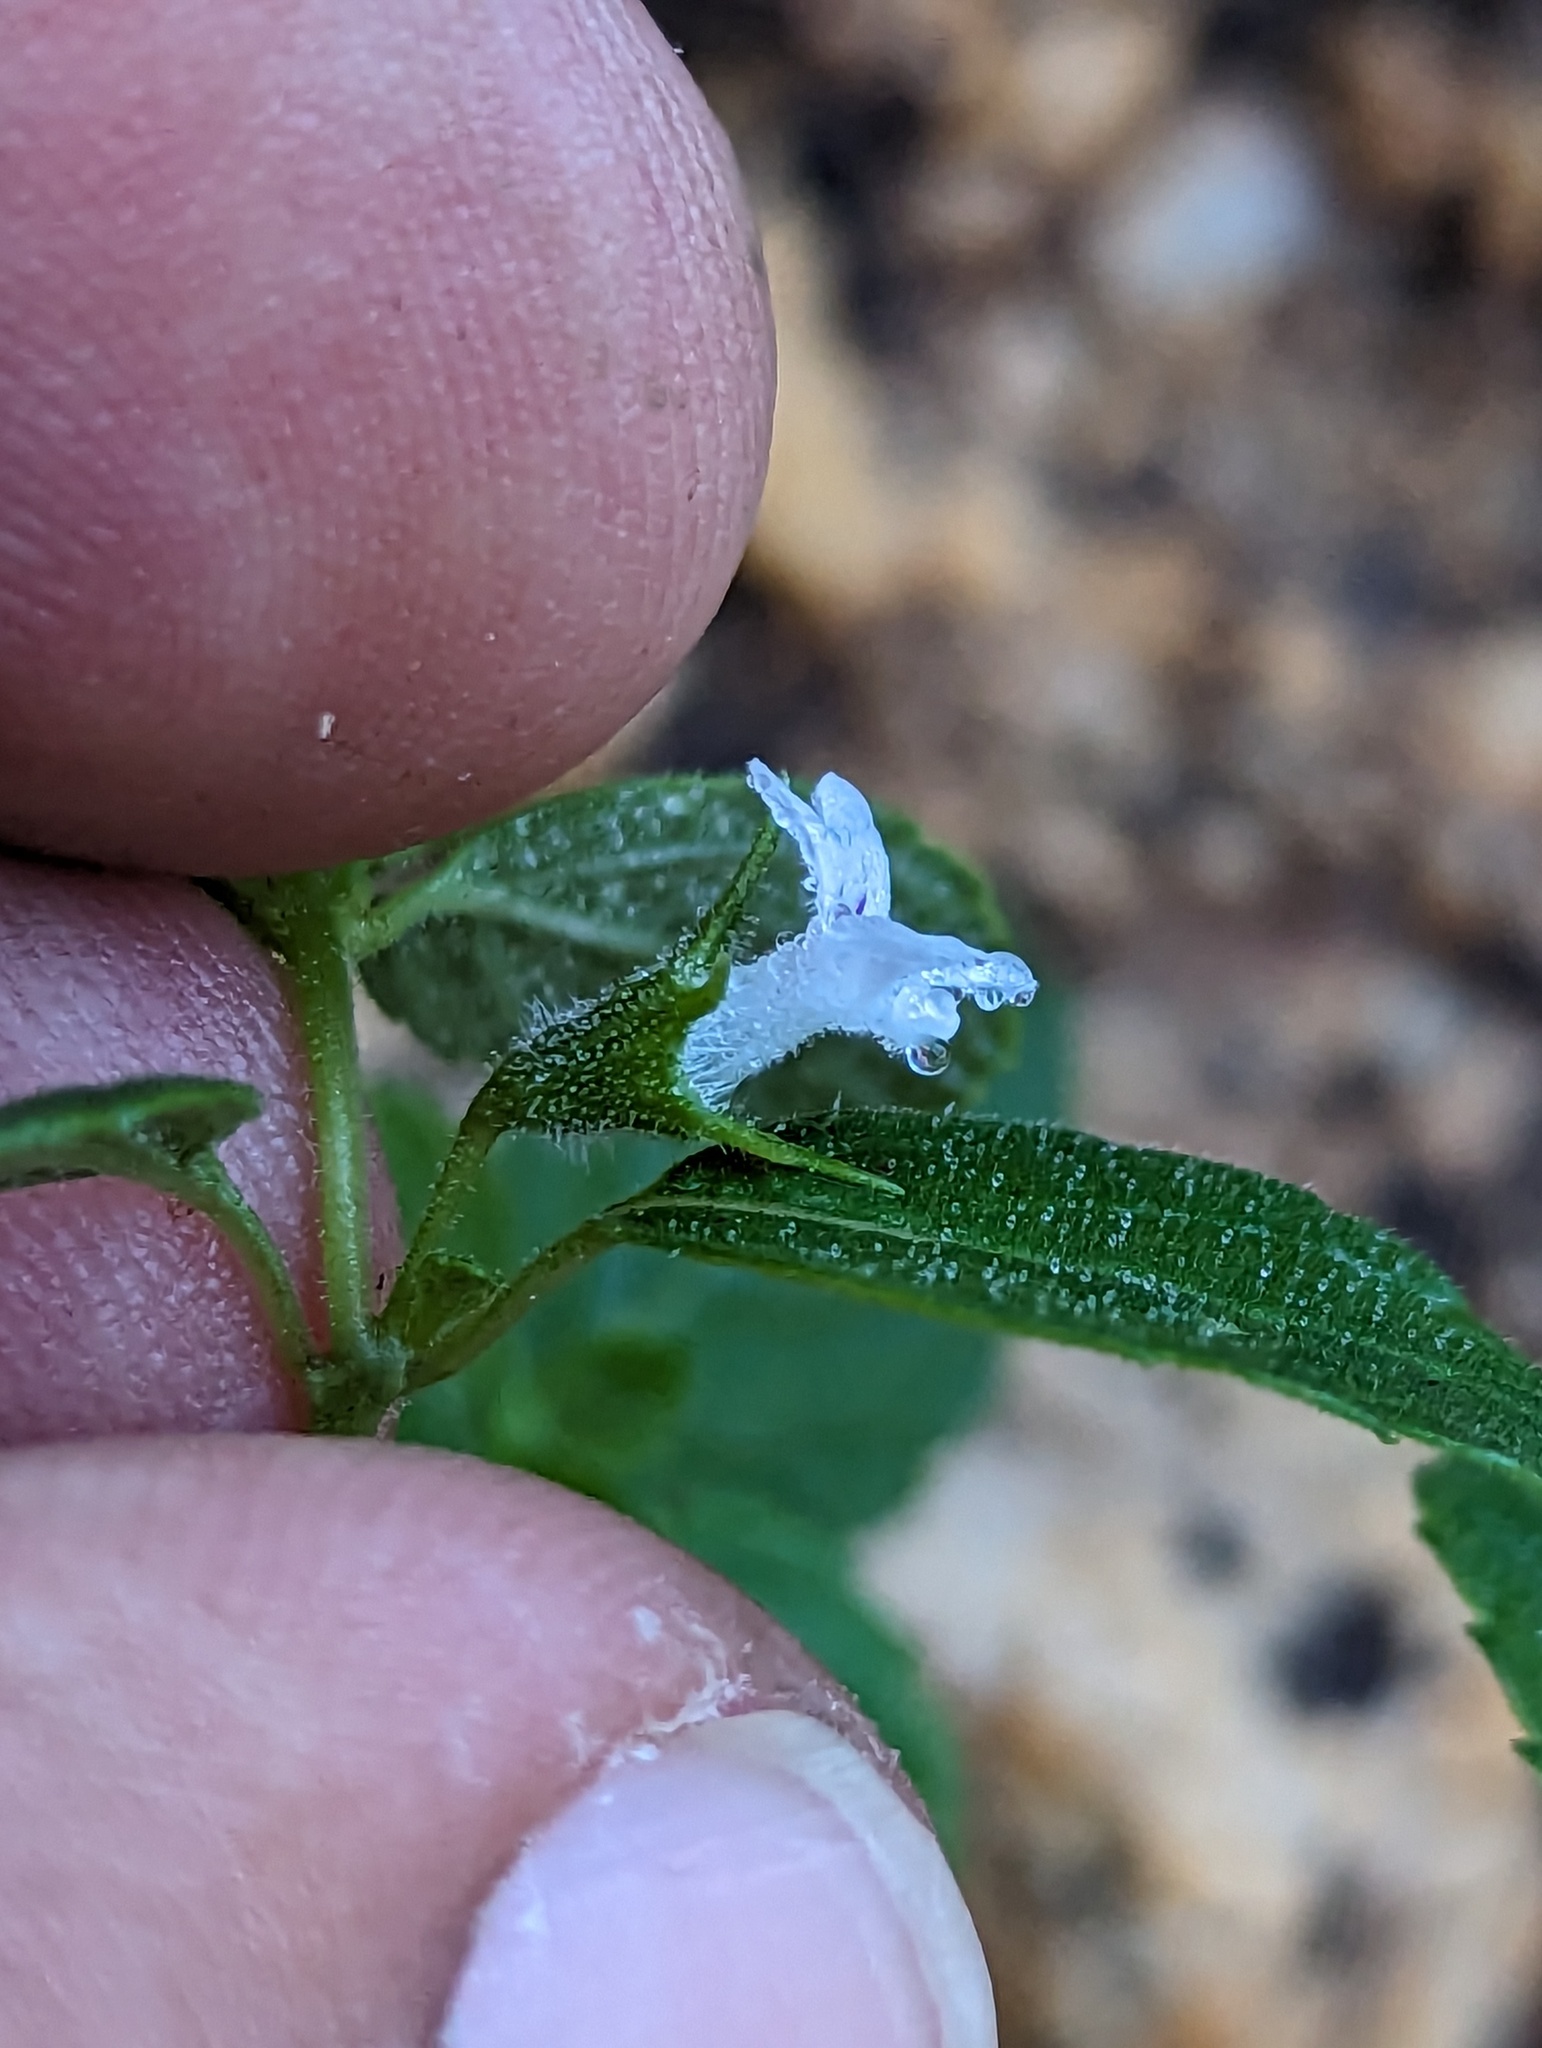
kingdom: Plantae
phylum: Tracheophyta
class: Magnoliopsida
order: Lamiales
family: Lamiaceae
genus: Mesosphaerum
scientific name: Mesosphaerum suaveolens
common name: Pignut
